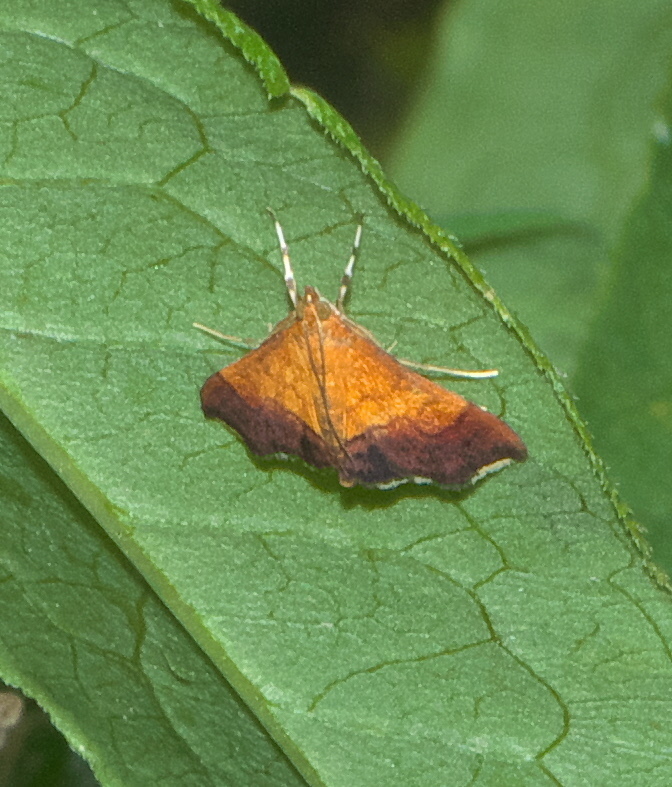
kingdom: Animalia
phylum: Arthropoda
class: Insecta
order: Lepidoptera
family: Crambidae
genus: Pyrausta
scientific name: Pyrausta bicoloralis
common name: Bicolored pyrausta moth
